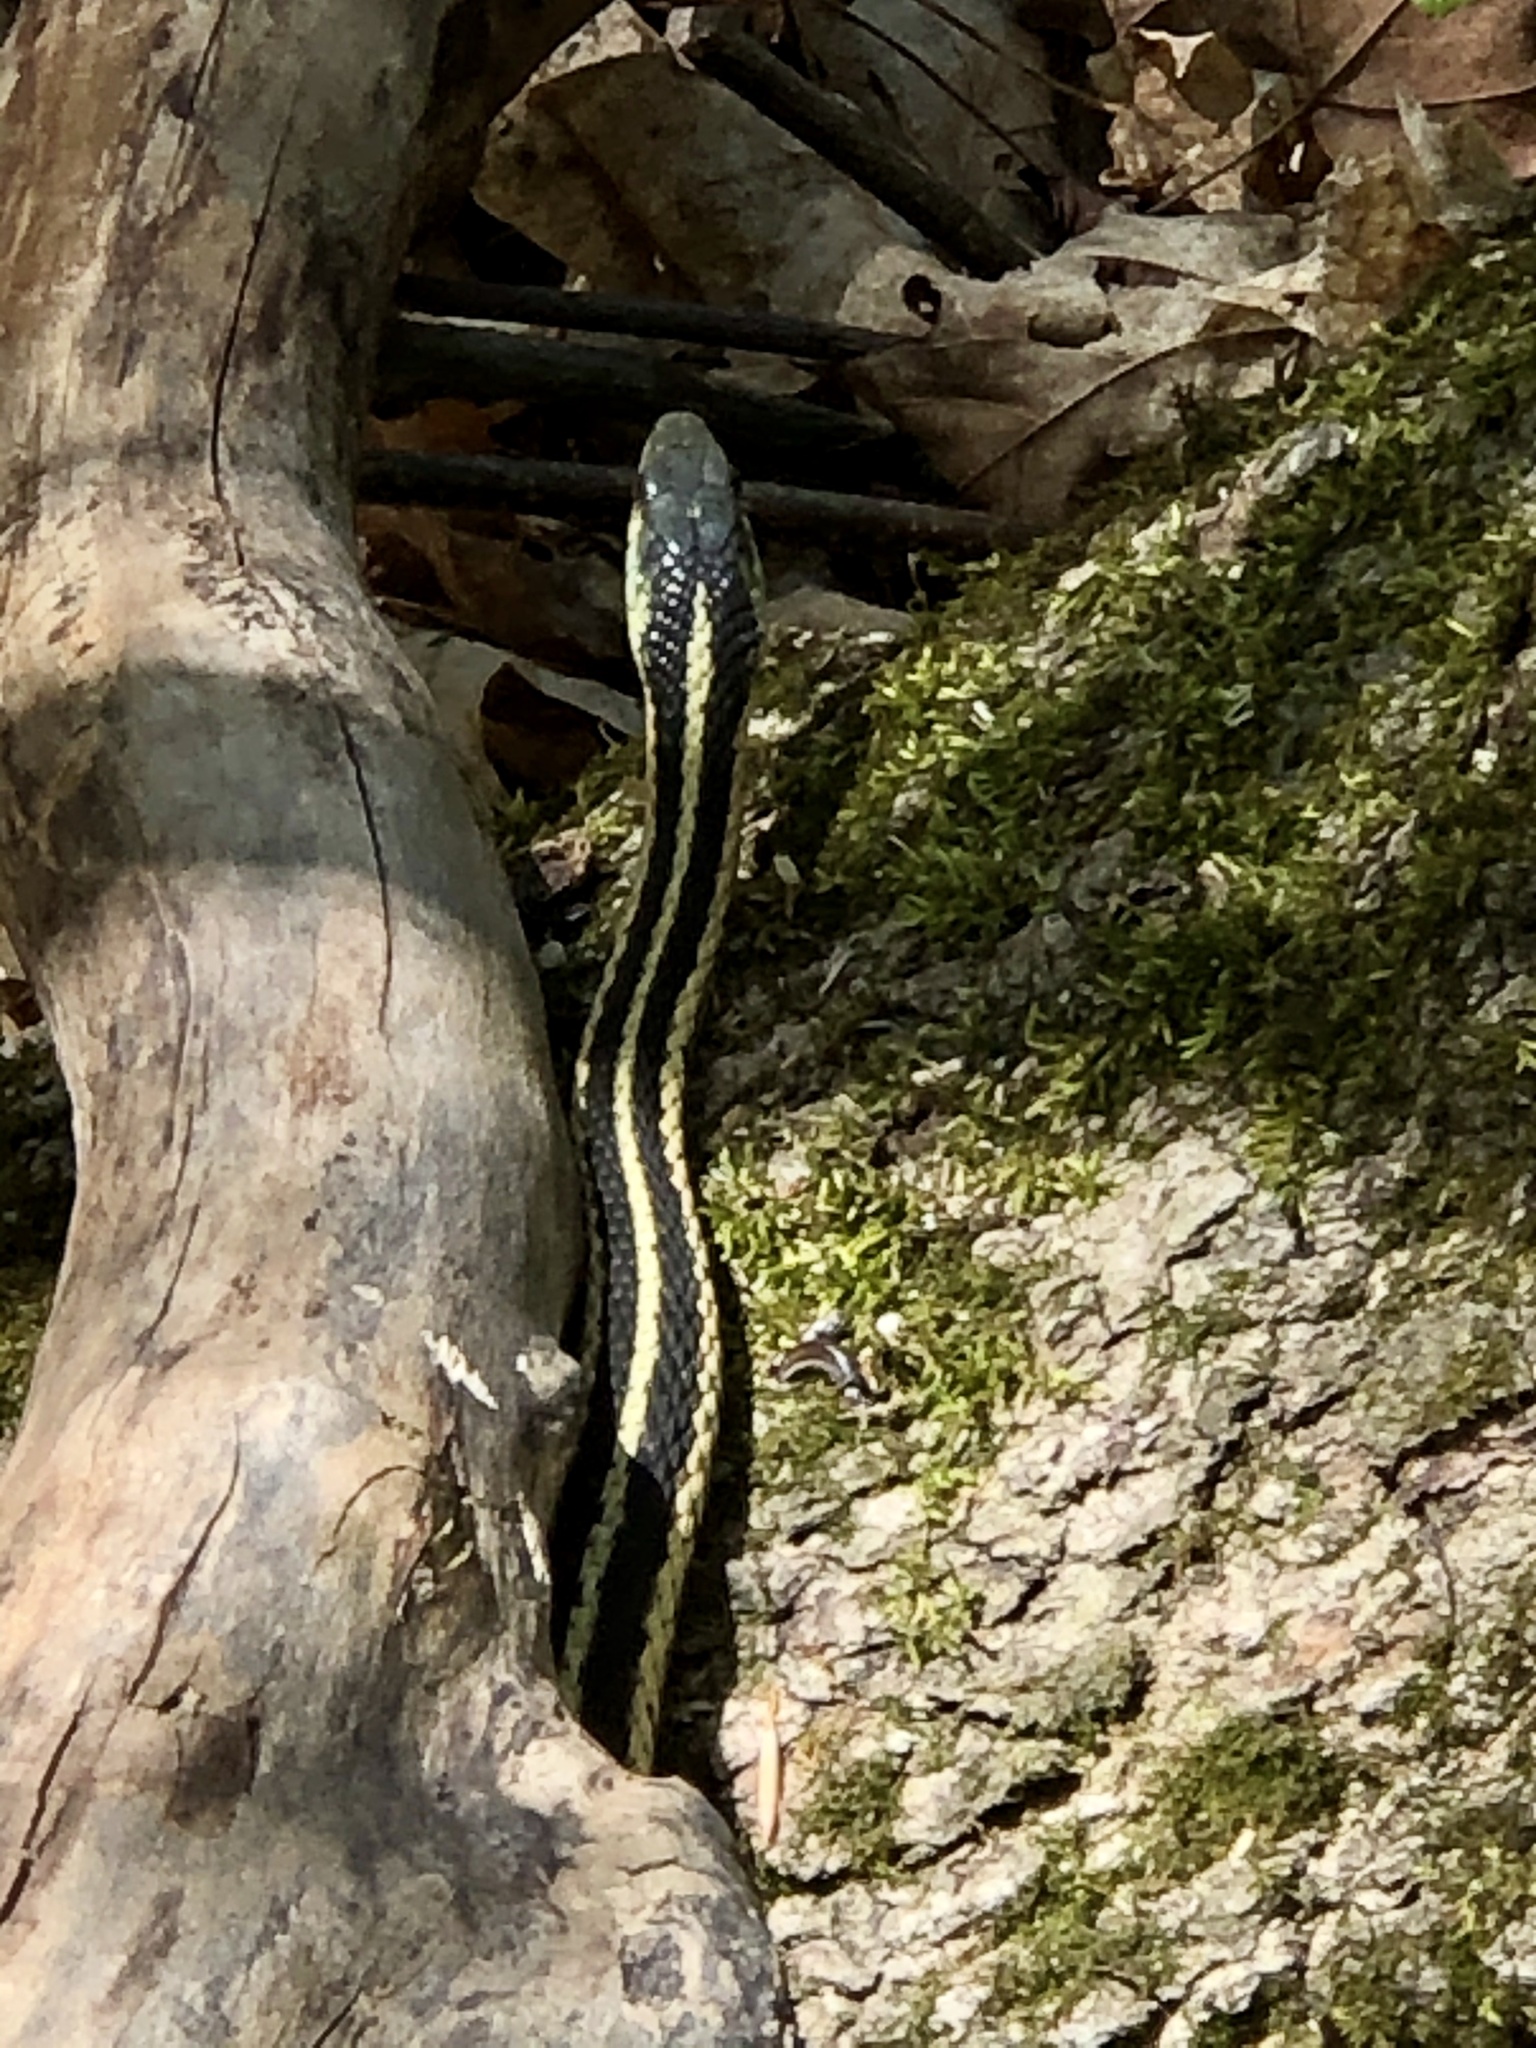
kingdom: Animalia
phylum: Chordata
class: Squamata
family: Colubridae
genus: Thamnophis
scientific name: Thamnophis sirtalis
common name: Common garter snake
